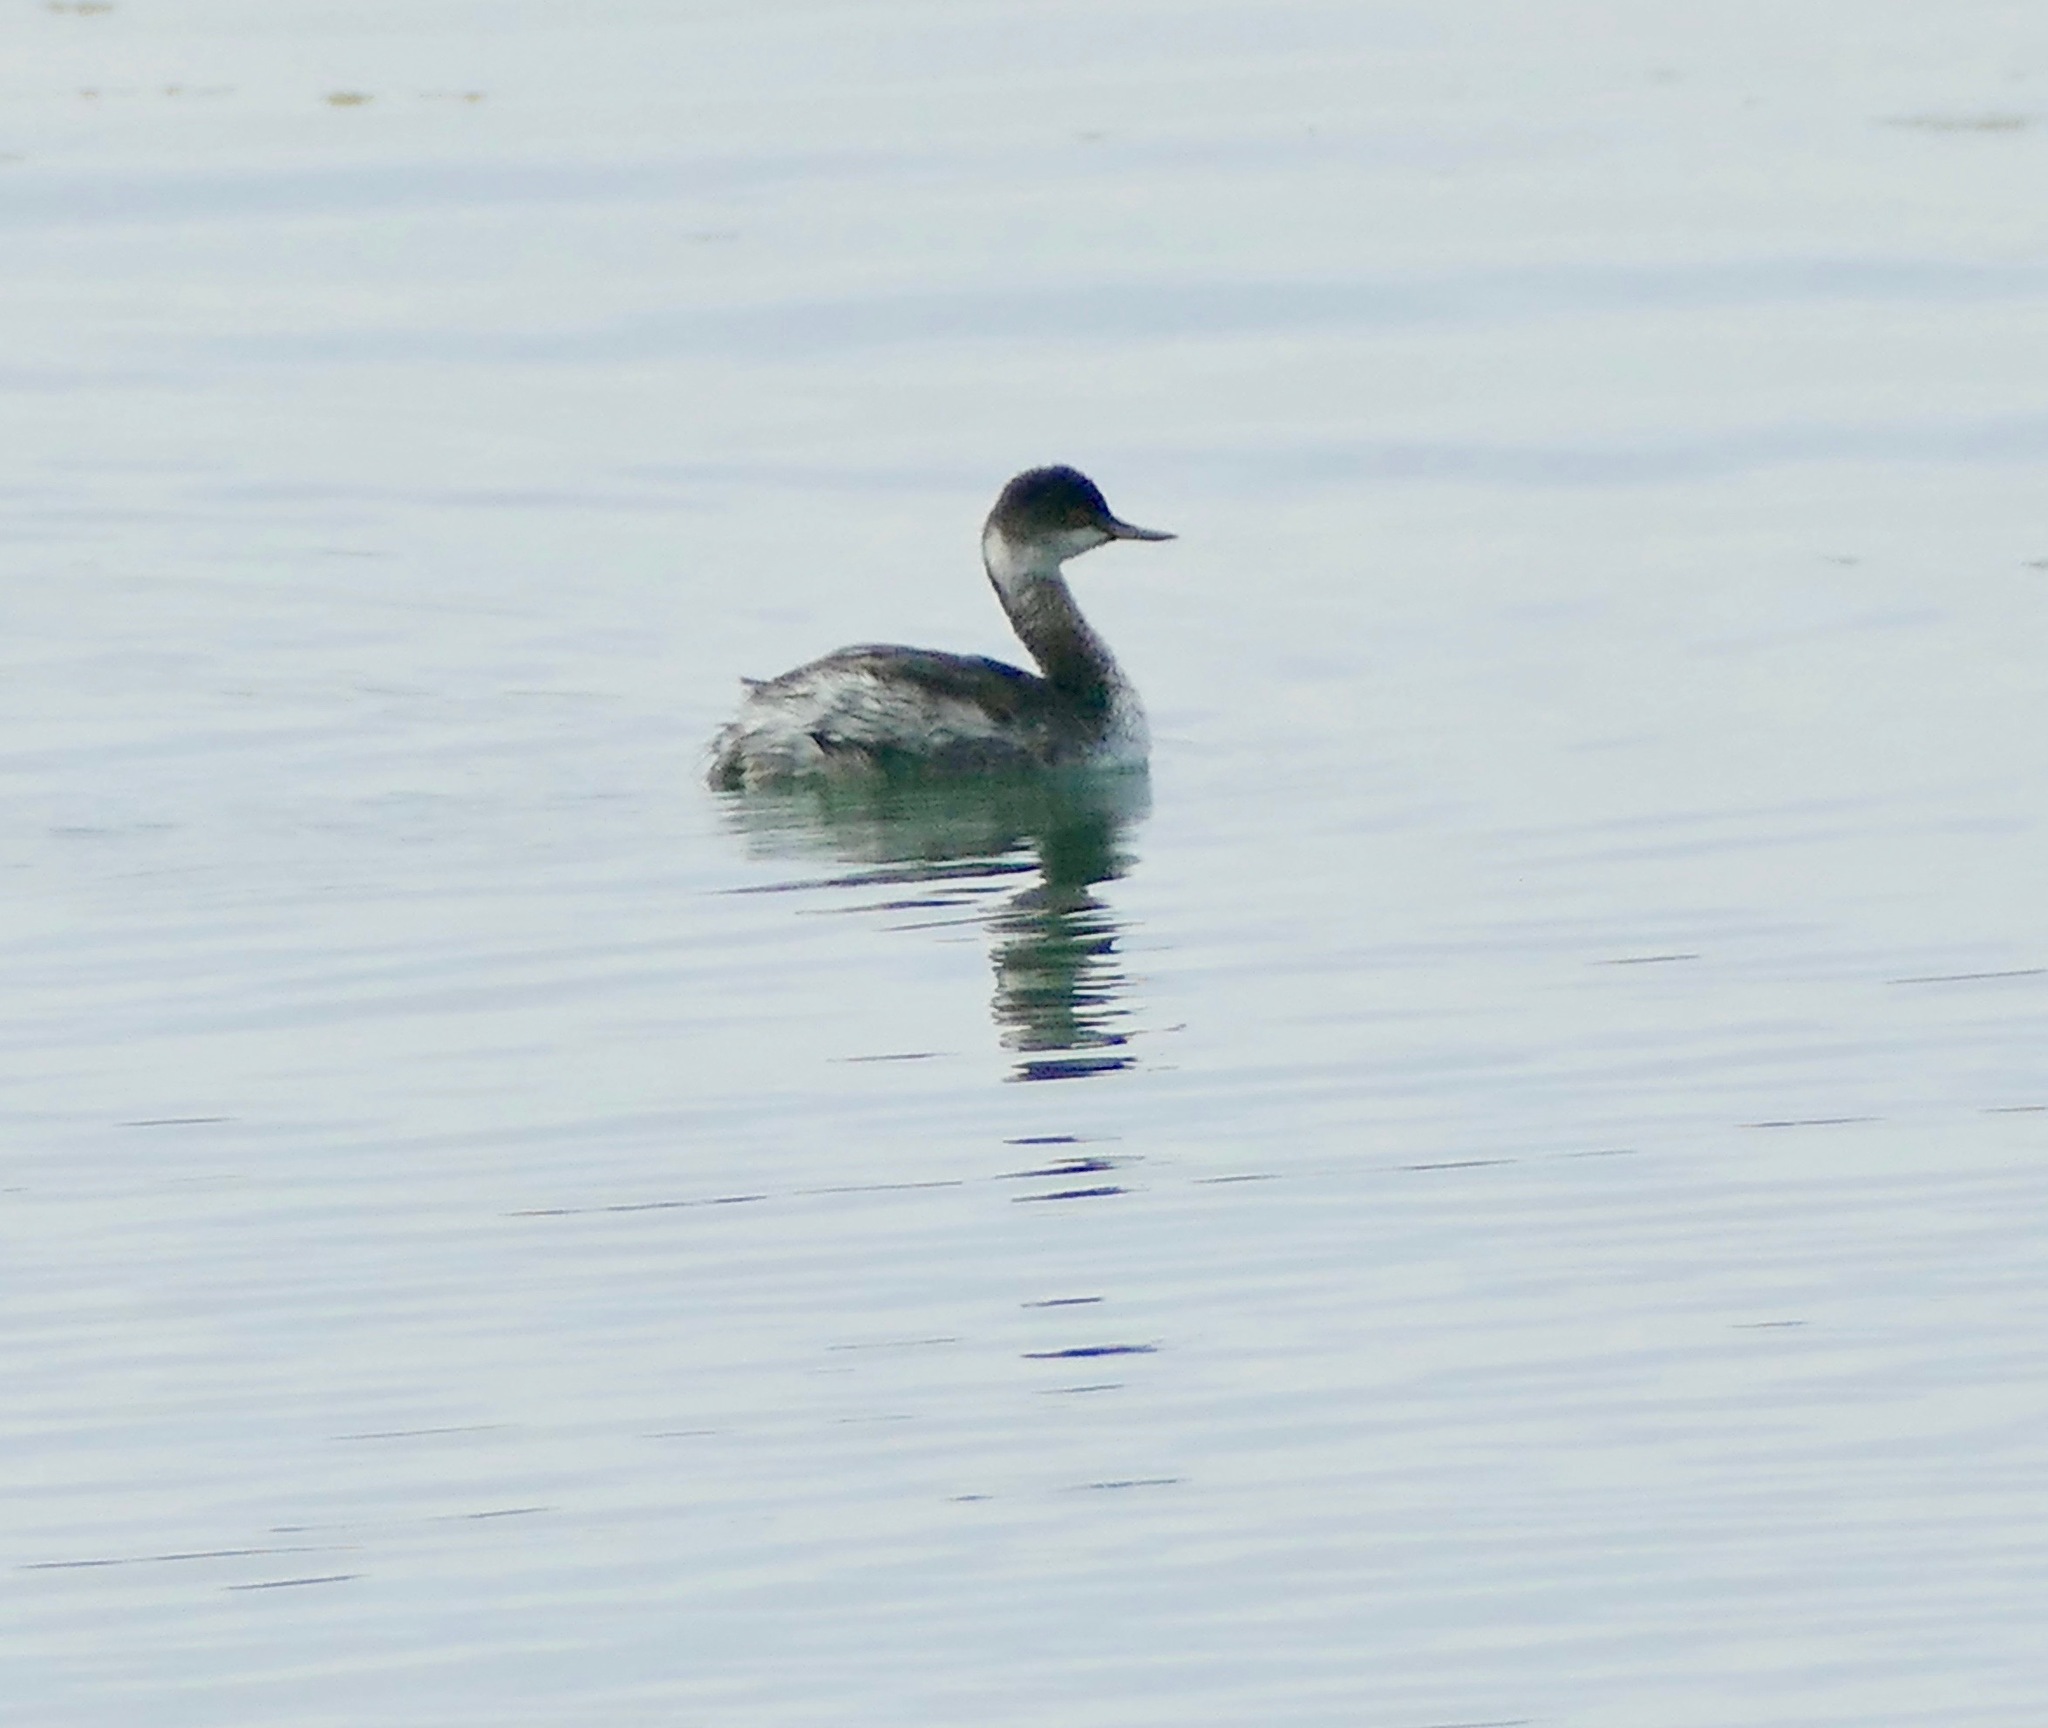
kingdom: Animalia
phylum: Chordata
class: Aves
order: Podicipediformes
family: Podicipedidae
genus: Podiceps
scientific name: Podiceps nigricollis
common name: Black-necked grebe
